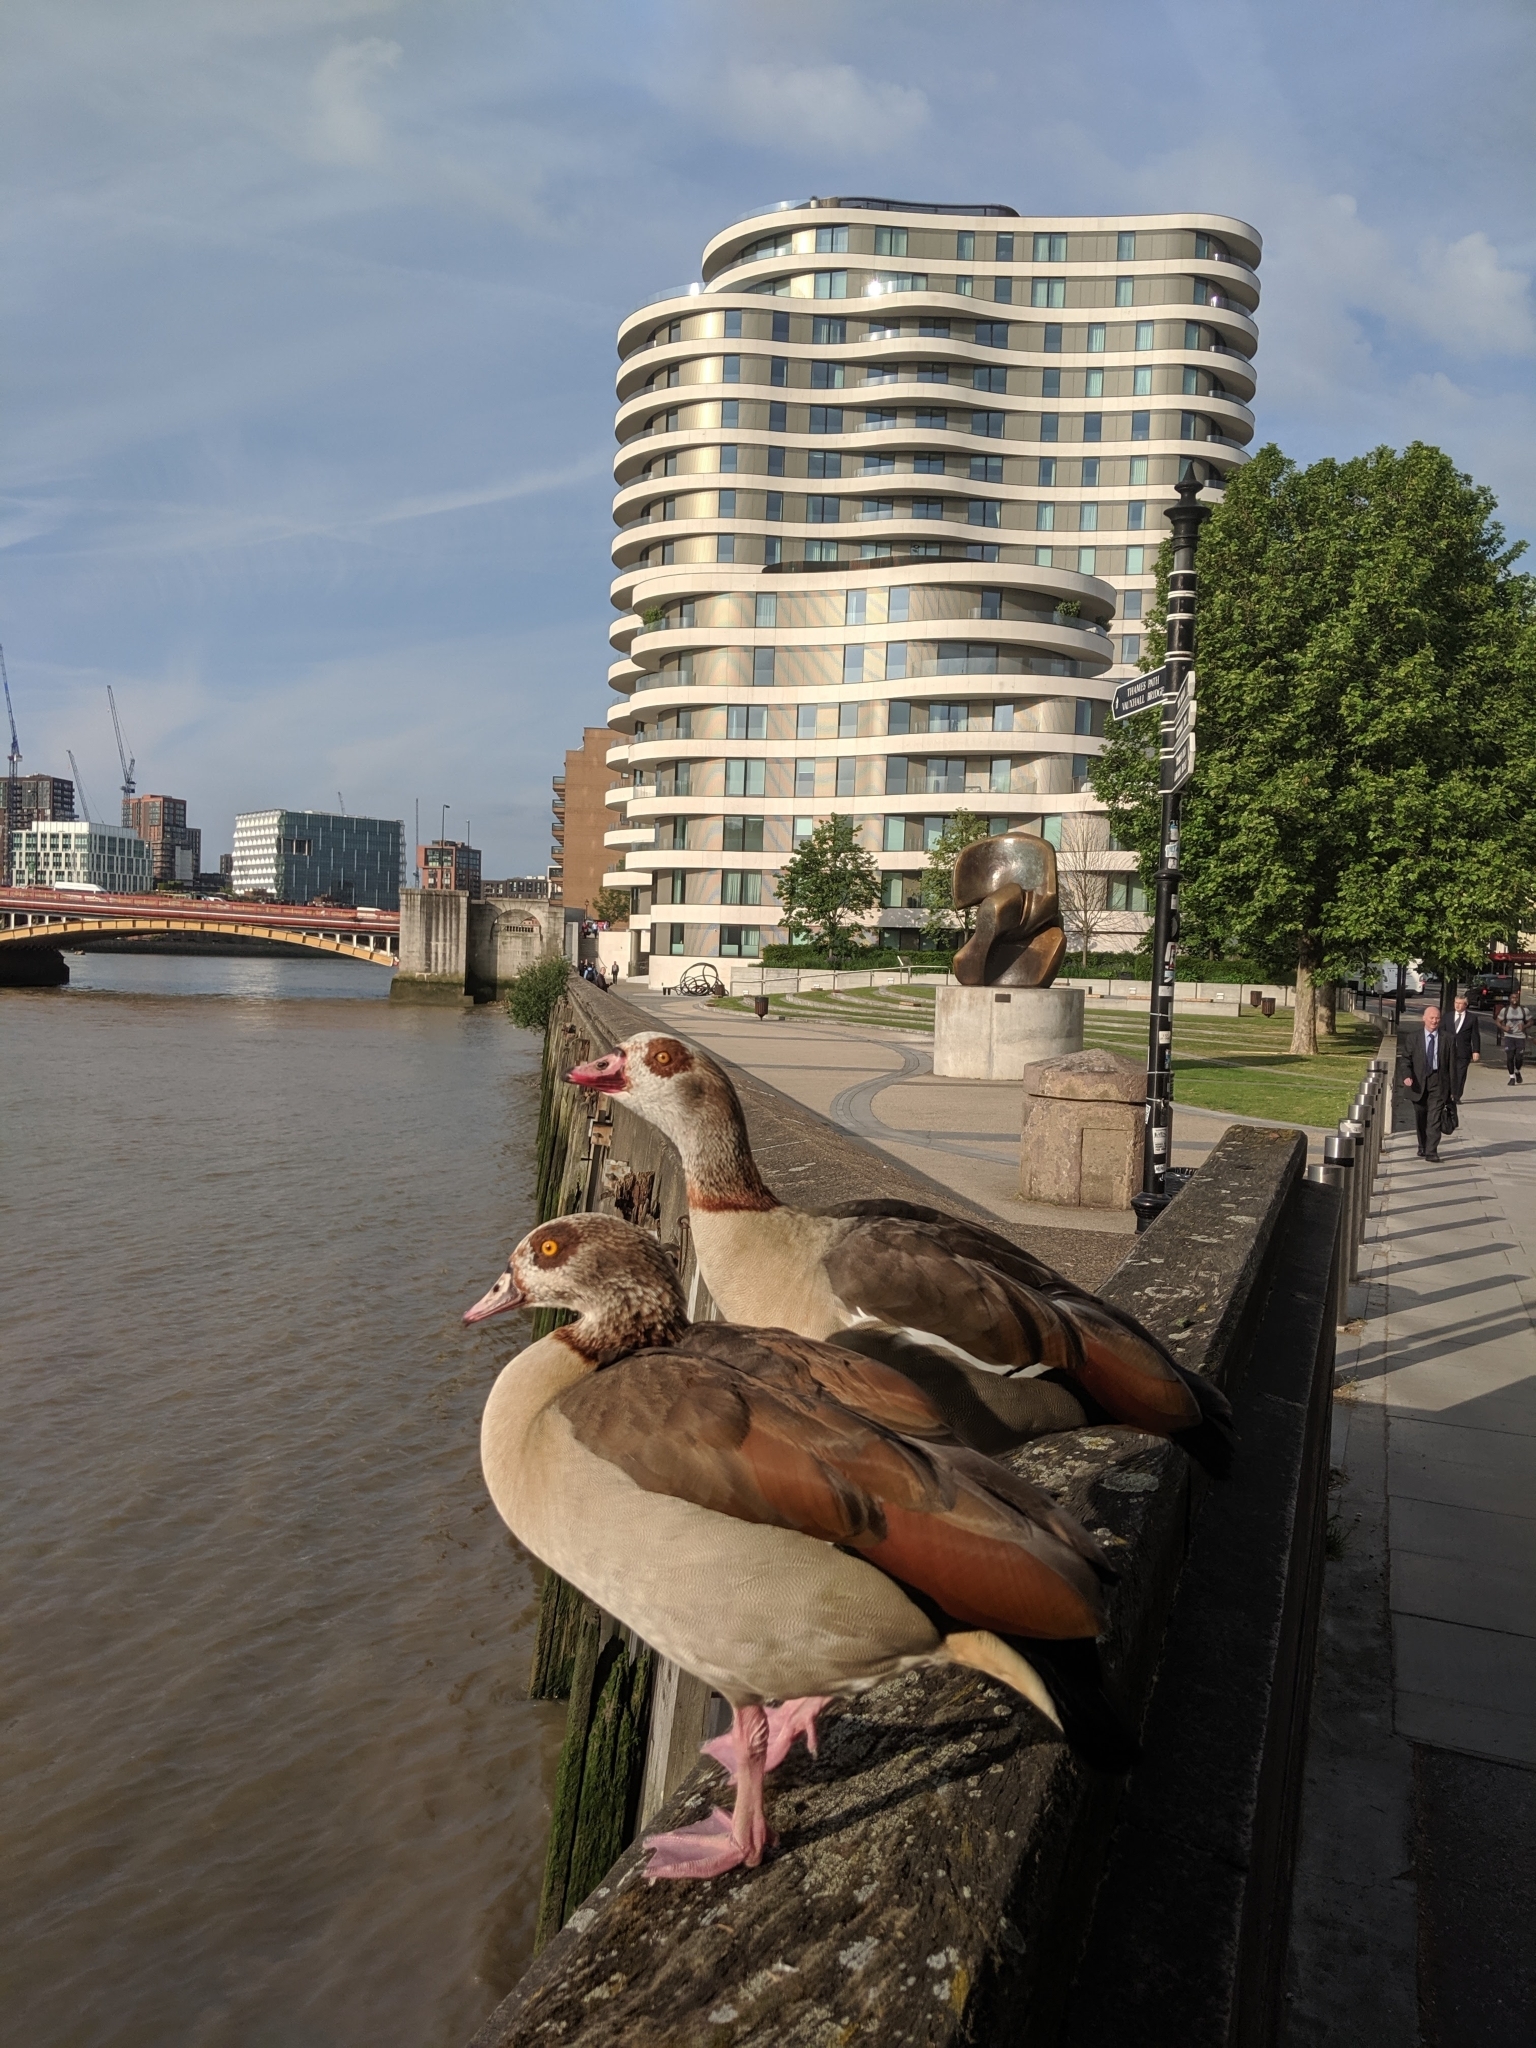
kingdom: Animalia
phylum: Chordata
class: Aves
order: Anseriformes
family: Anatidae
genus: Alopochen
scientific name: Alopochen aegyptiaca
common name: Egyptian goose
